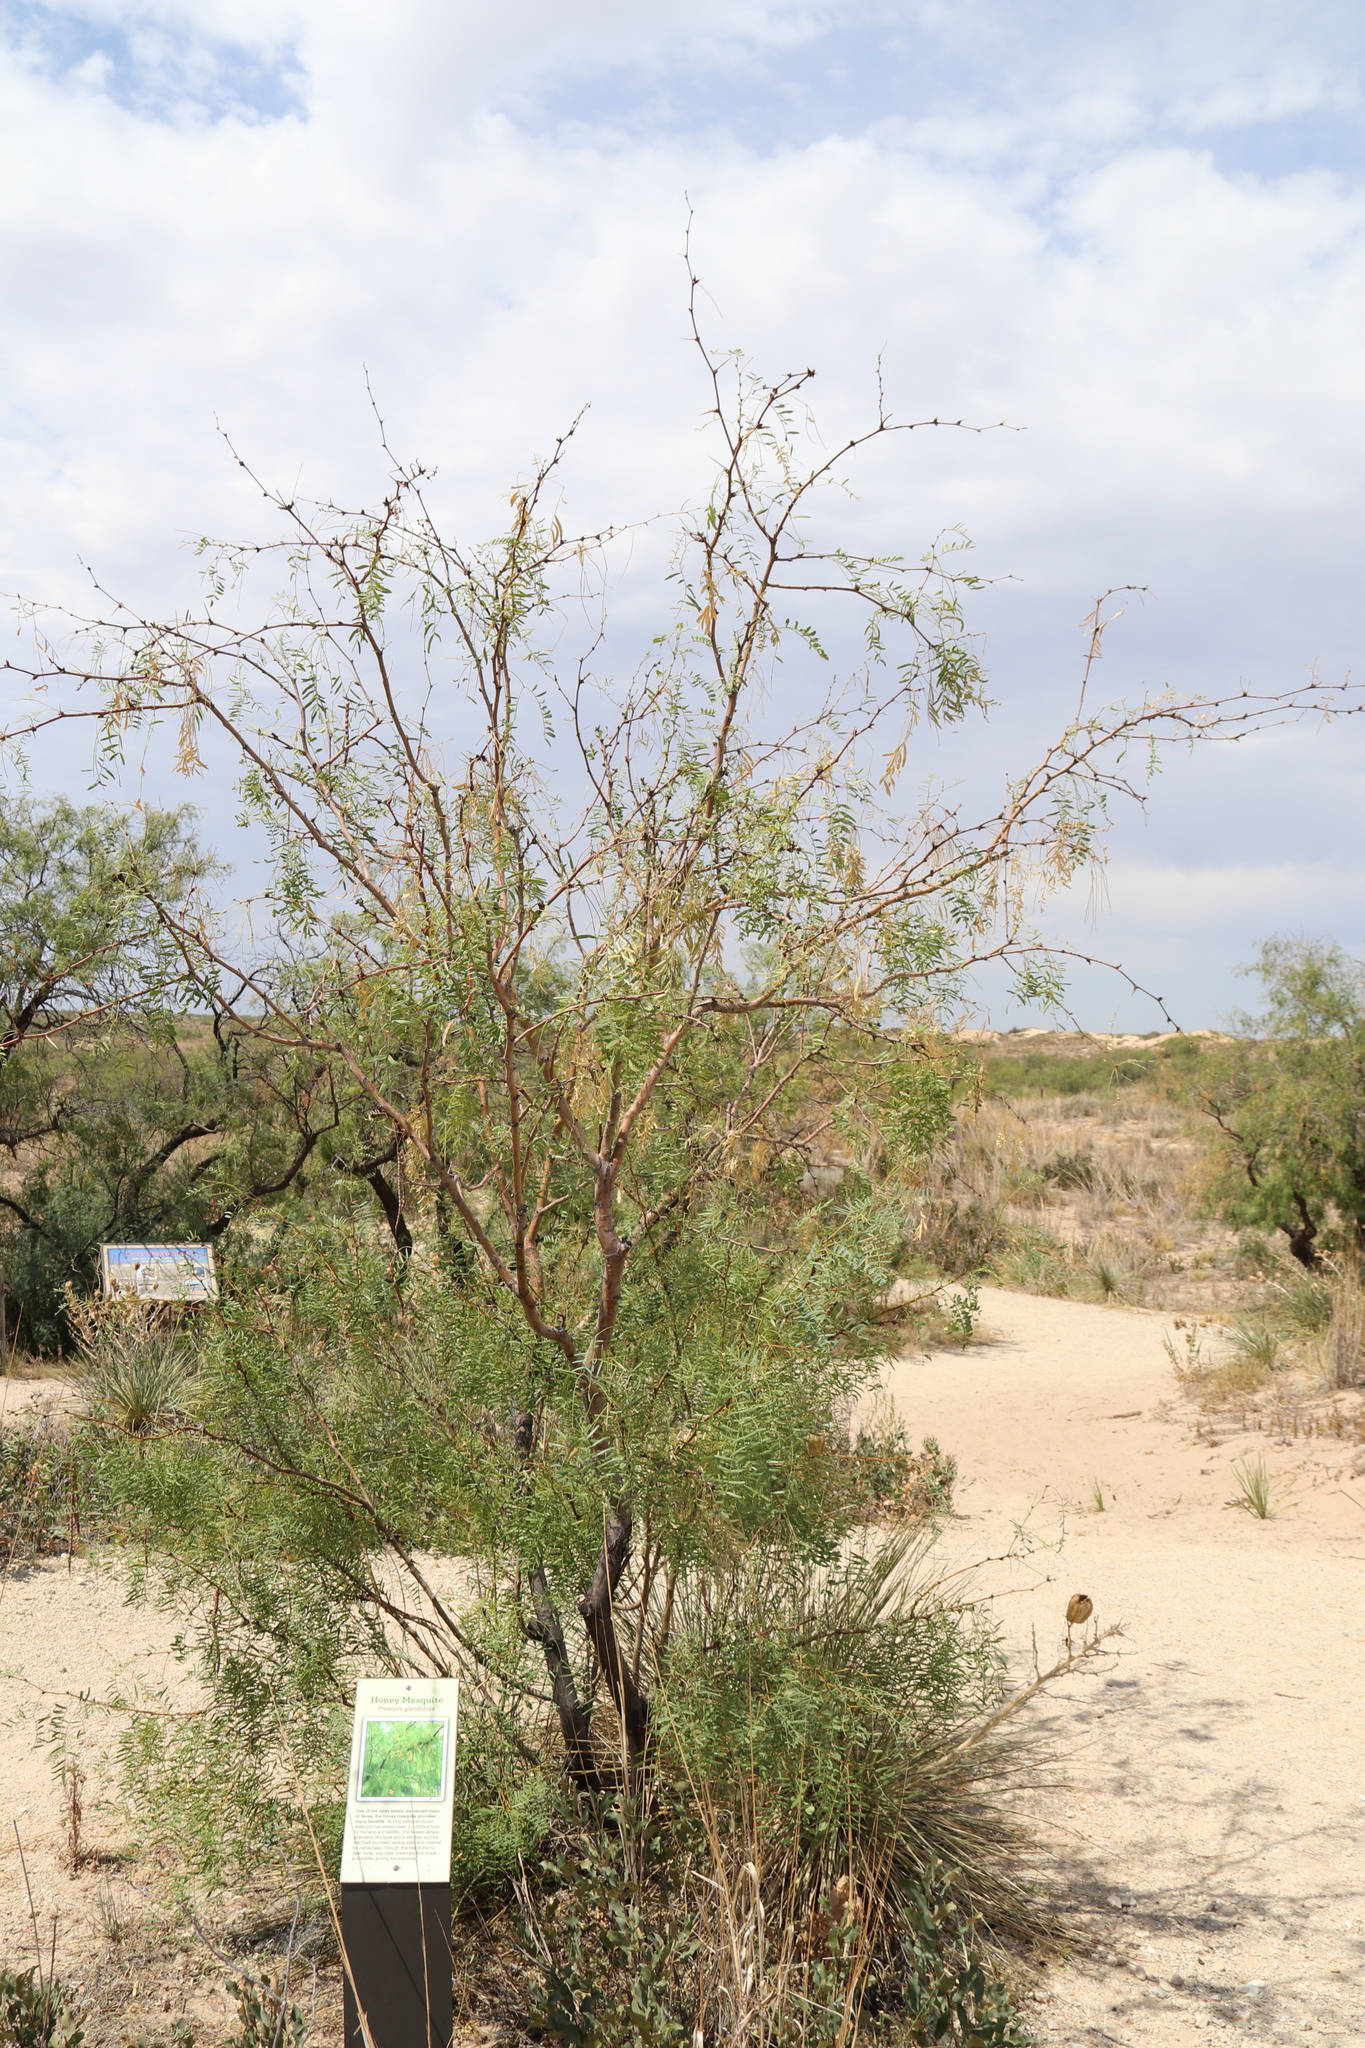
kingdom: Plantae
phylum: Tracheophyta
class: Magnoliopsida
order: Fabales
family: Fabaceae
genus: Prosopis
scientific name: Prosopis glandulosa
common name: Honey mesquite
